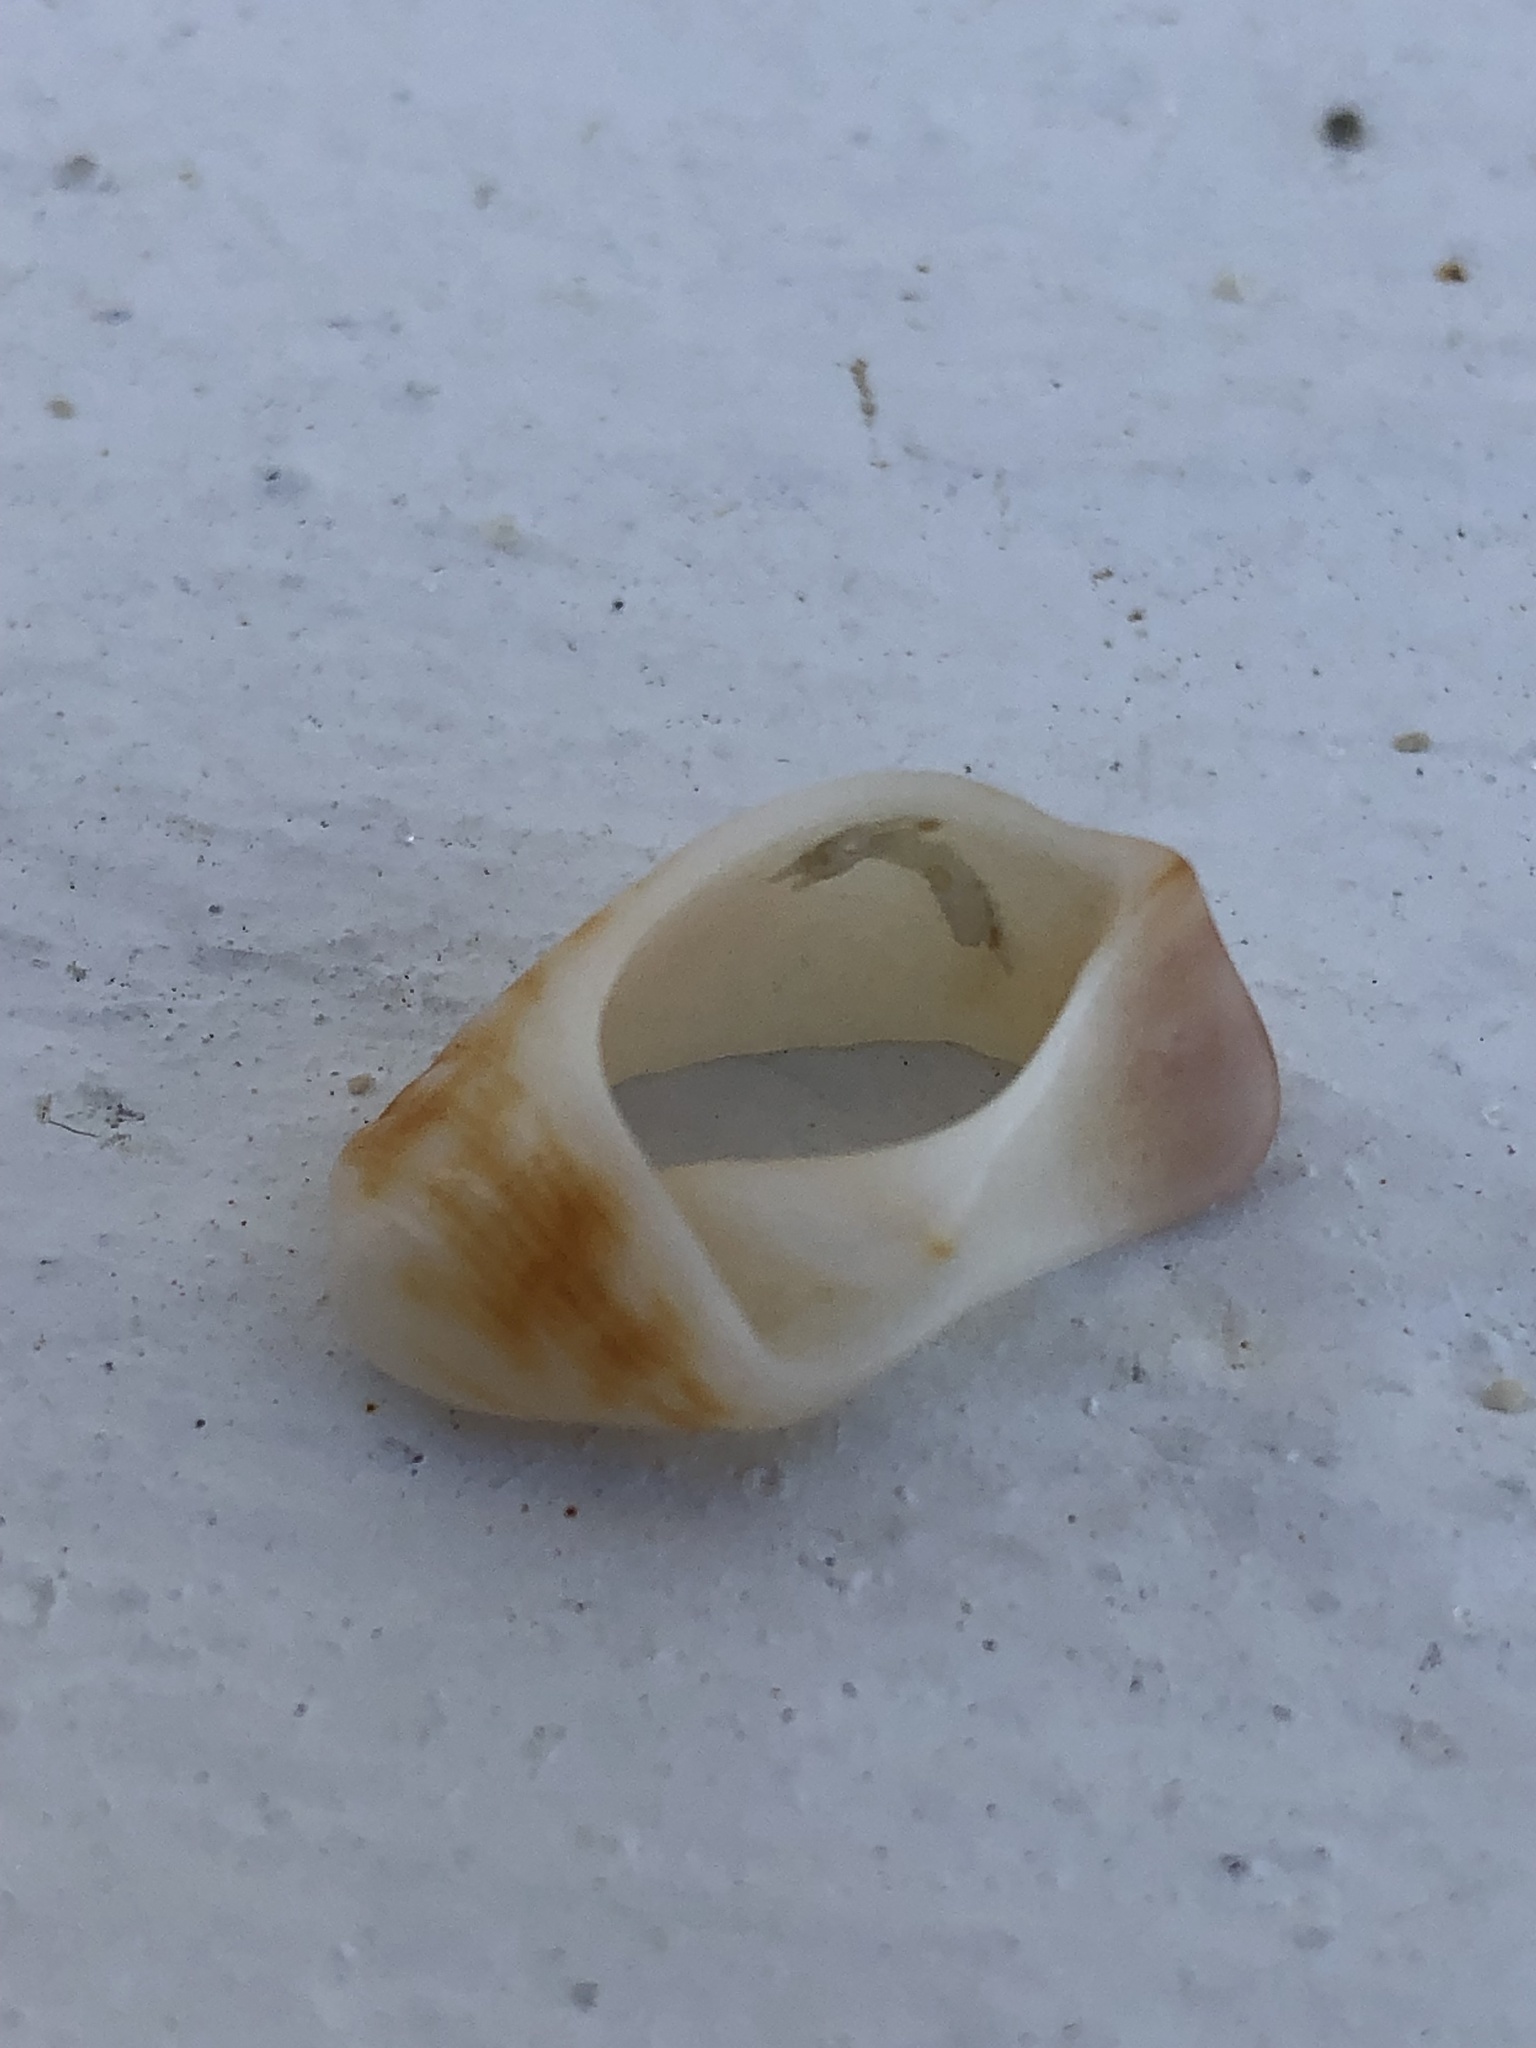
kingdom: Animalia
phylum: Mollusca
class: Gastropoda
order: Neogastropoda
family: Pisaniidae
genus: Gemophos
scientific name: Gemophos tinctus
